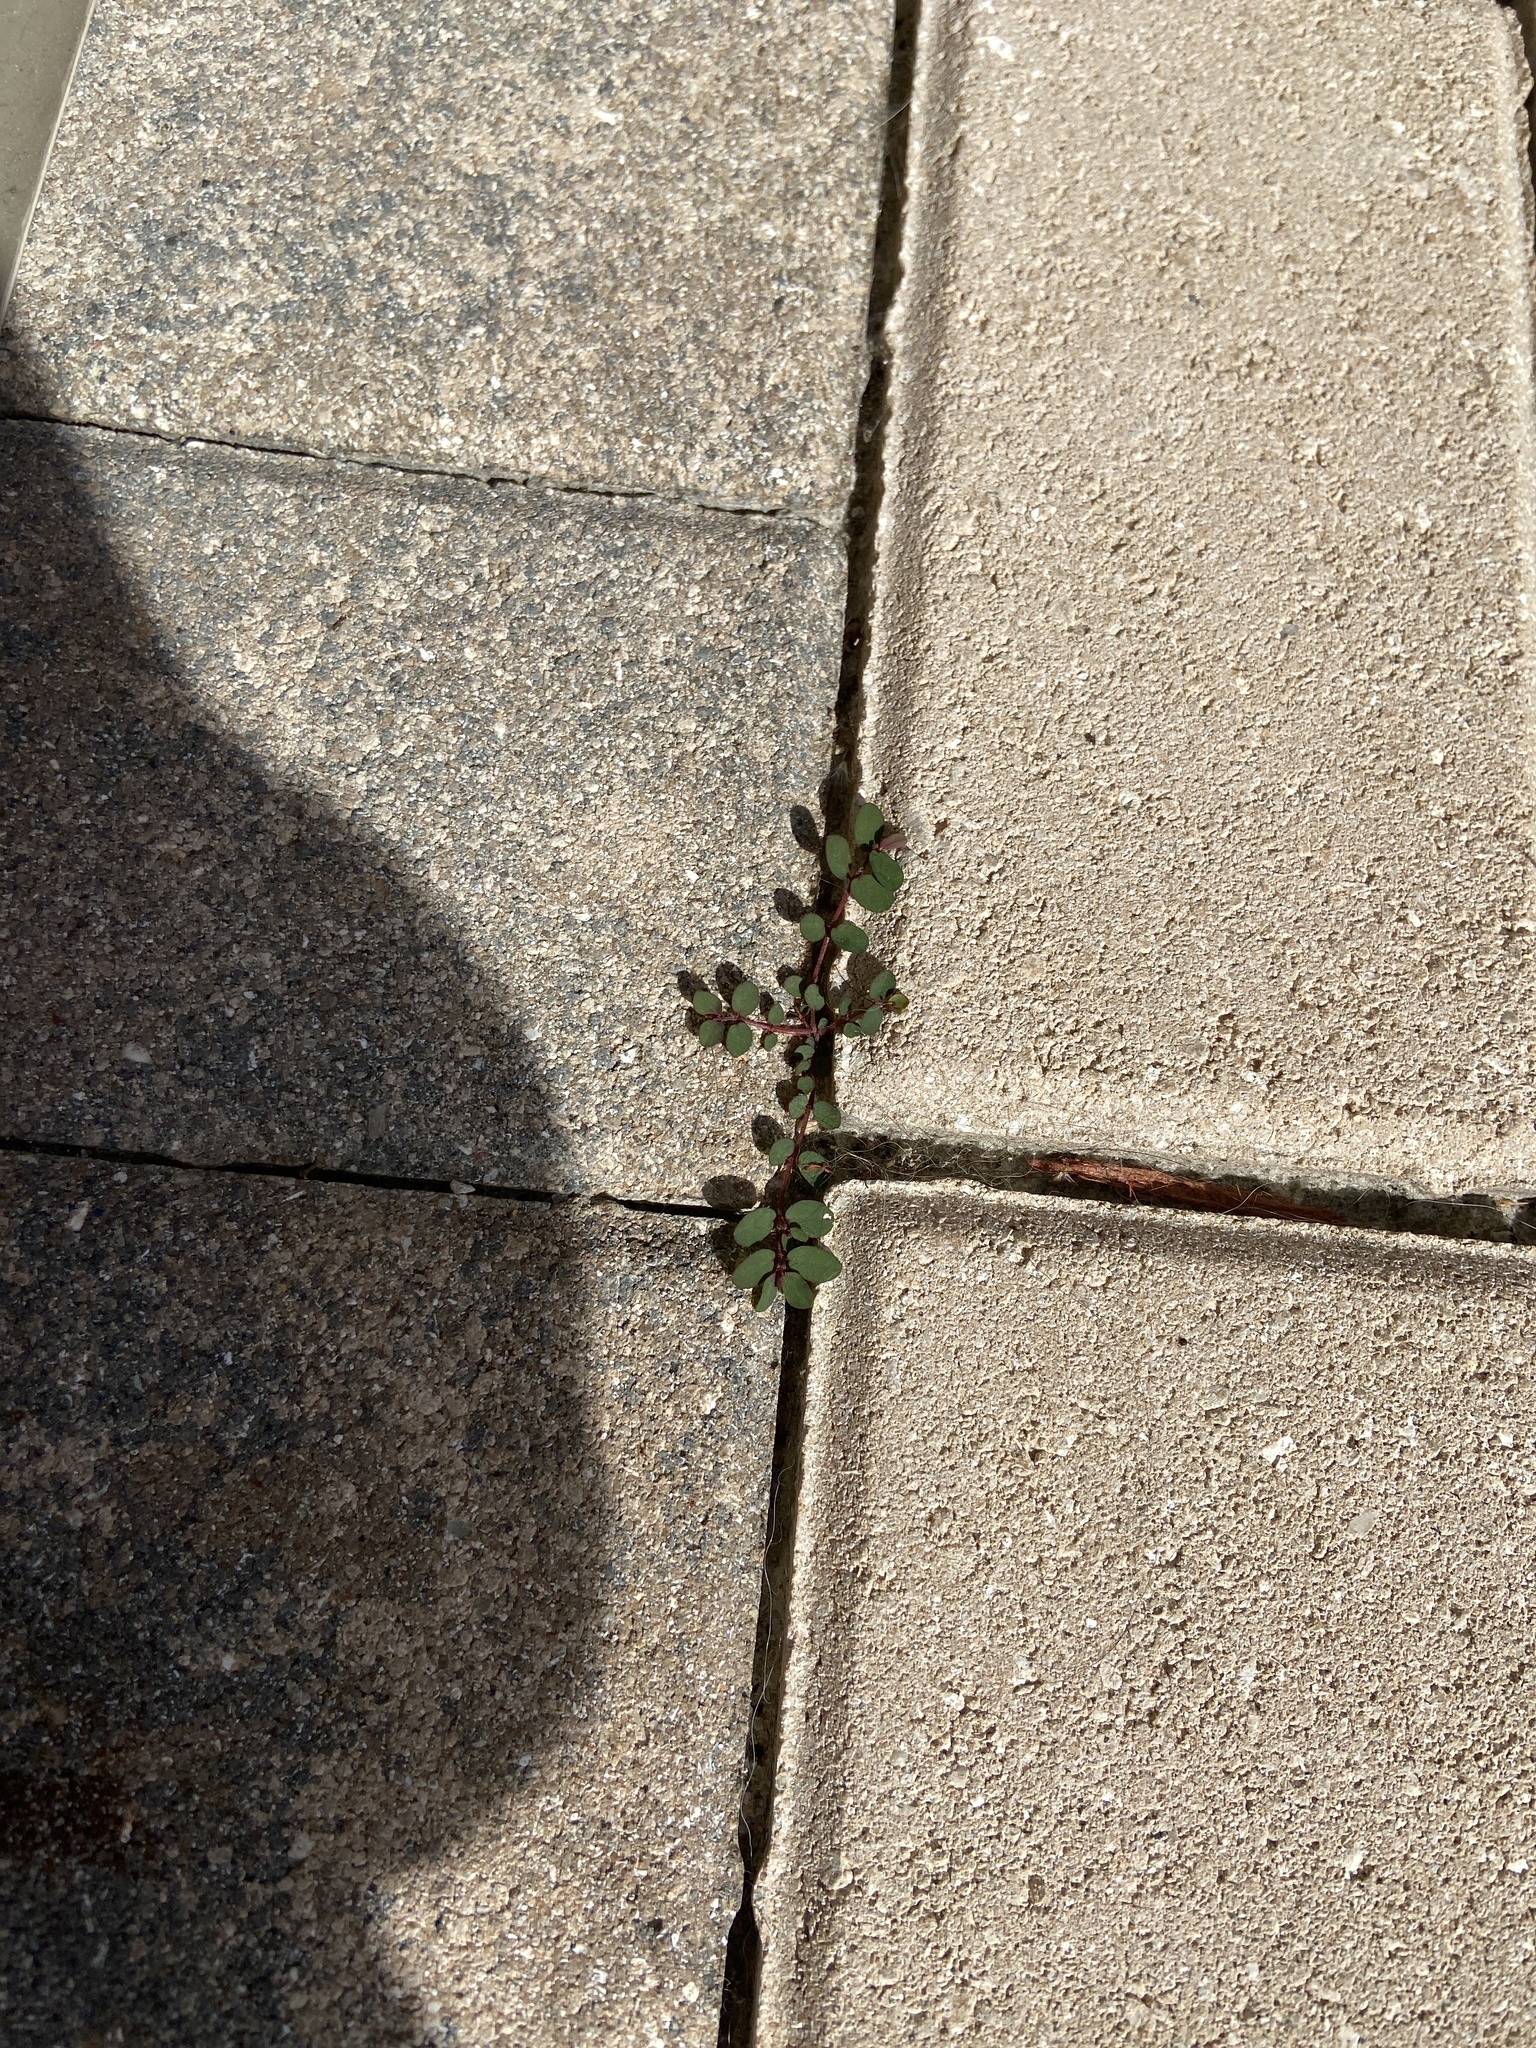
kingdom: Plantae
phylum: Tracheophyta
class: Magnoliopsida
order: Malpighiales
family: Euphorbiaceae
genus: Euphorbia
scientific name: Euphorbia prostrata
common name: Prostrate sandmat
